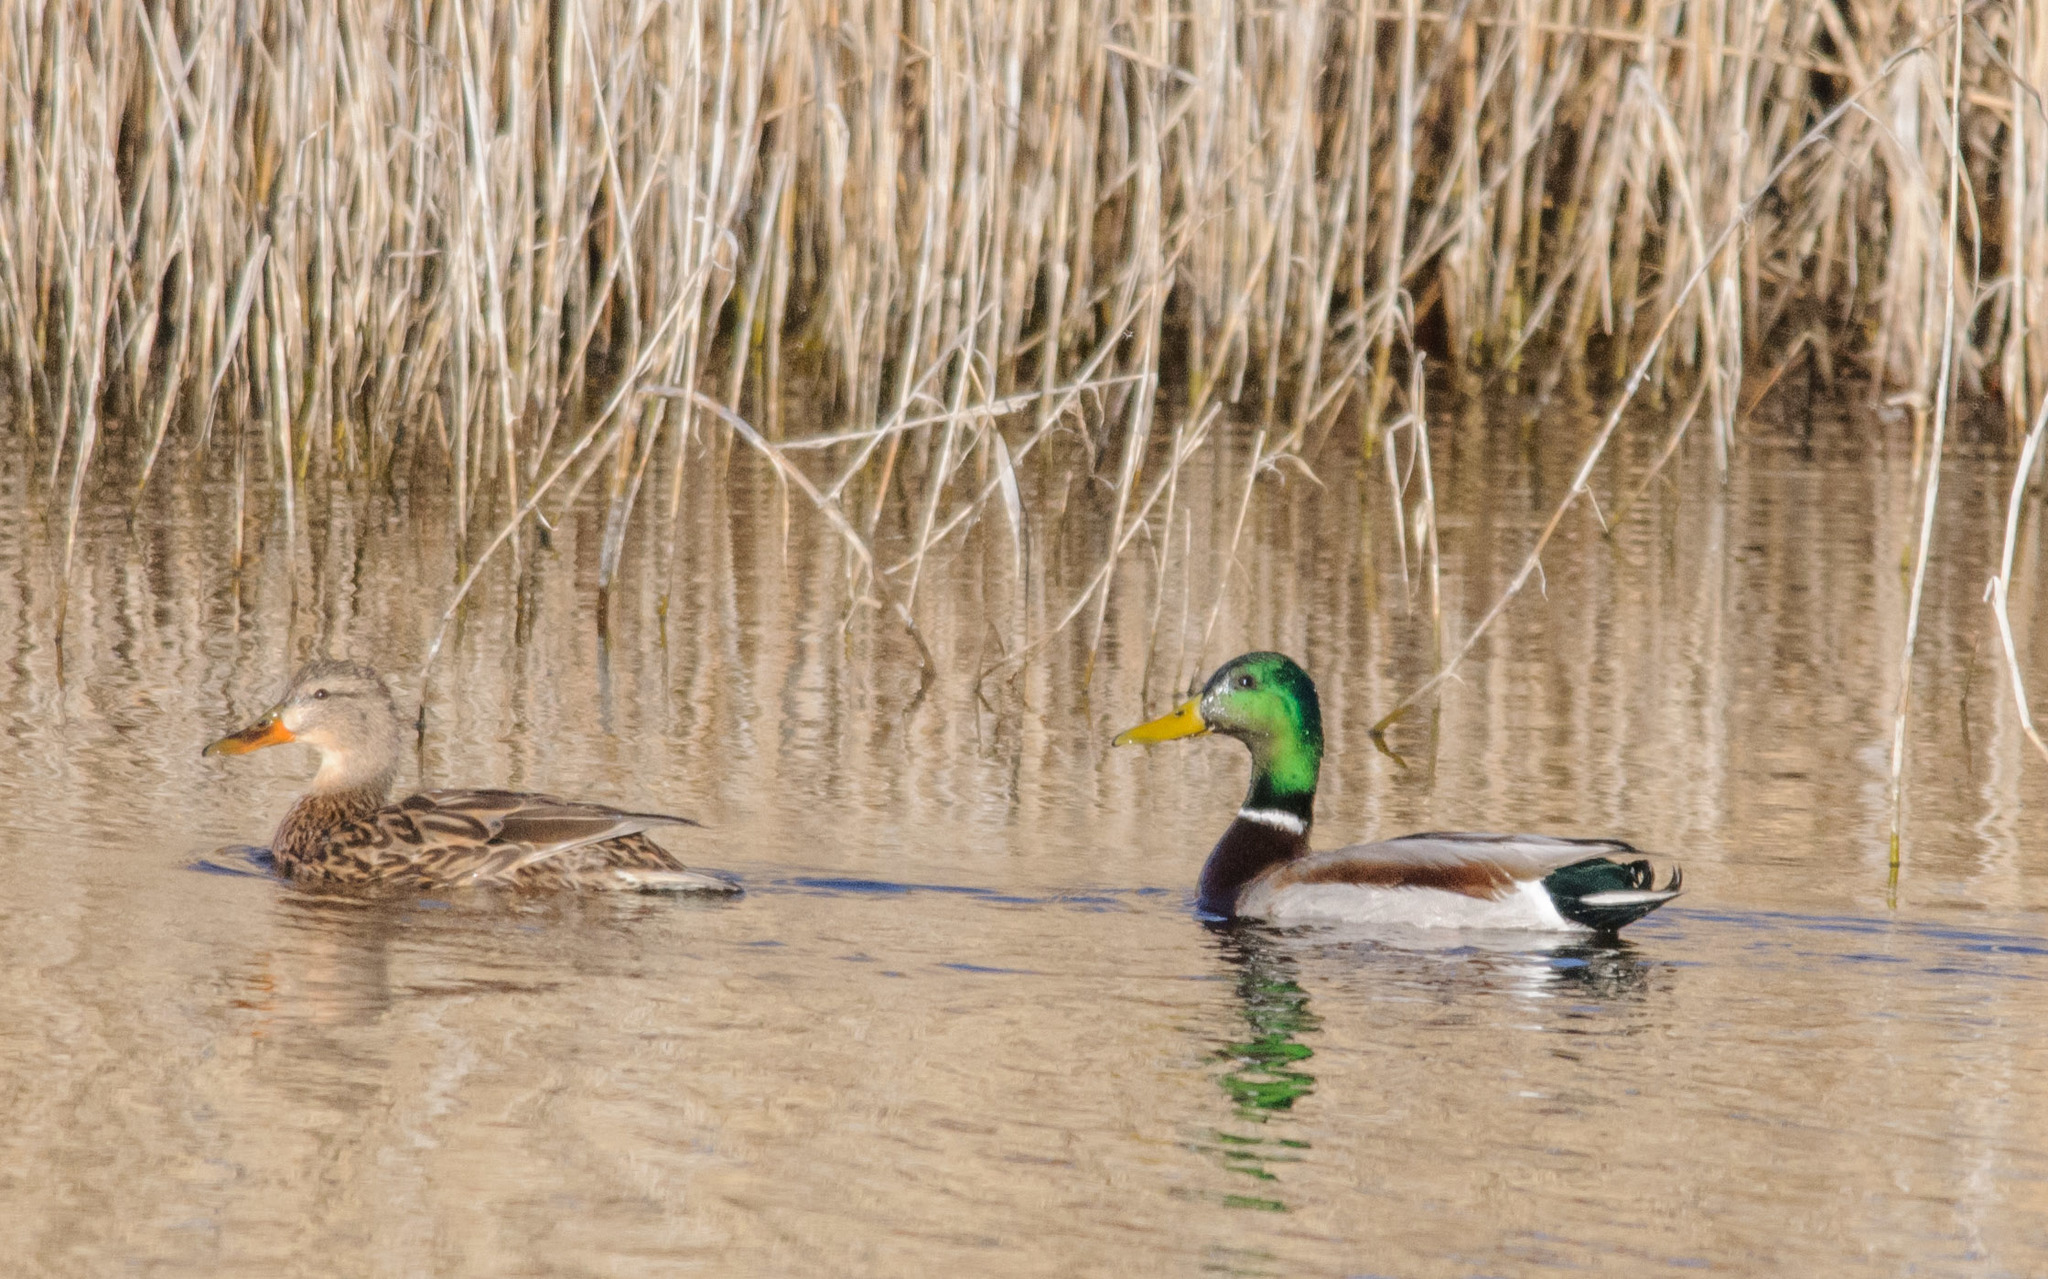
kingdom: Animalia
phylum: Chordata
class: Aves
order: Anseriformes
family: Anatidae
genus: Anas
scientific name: Anas platyrhynchos
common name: Mallard
